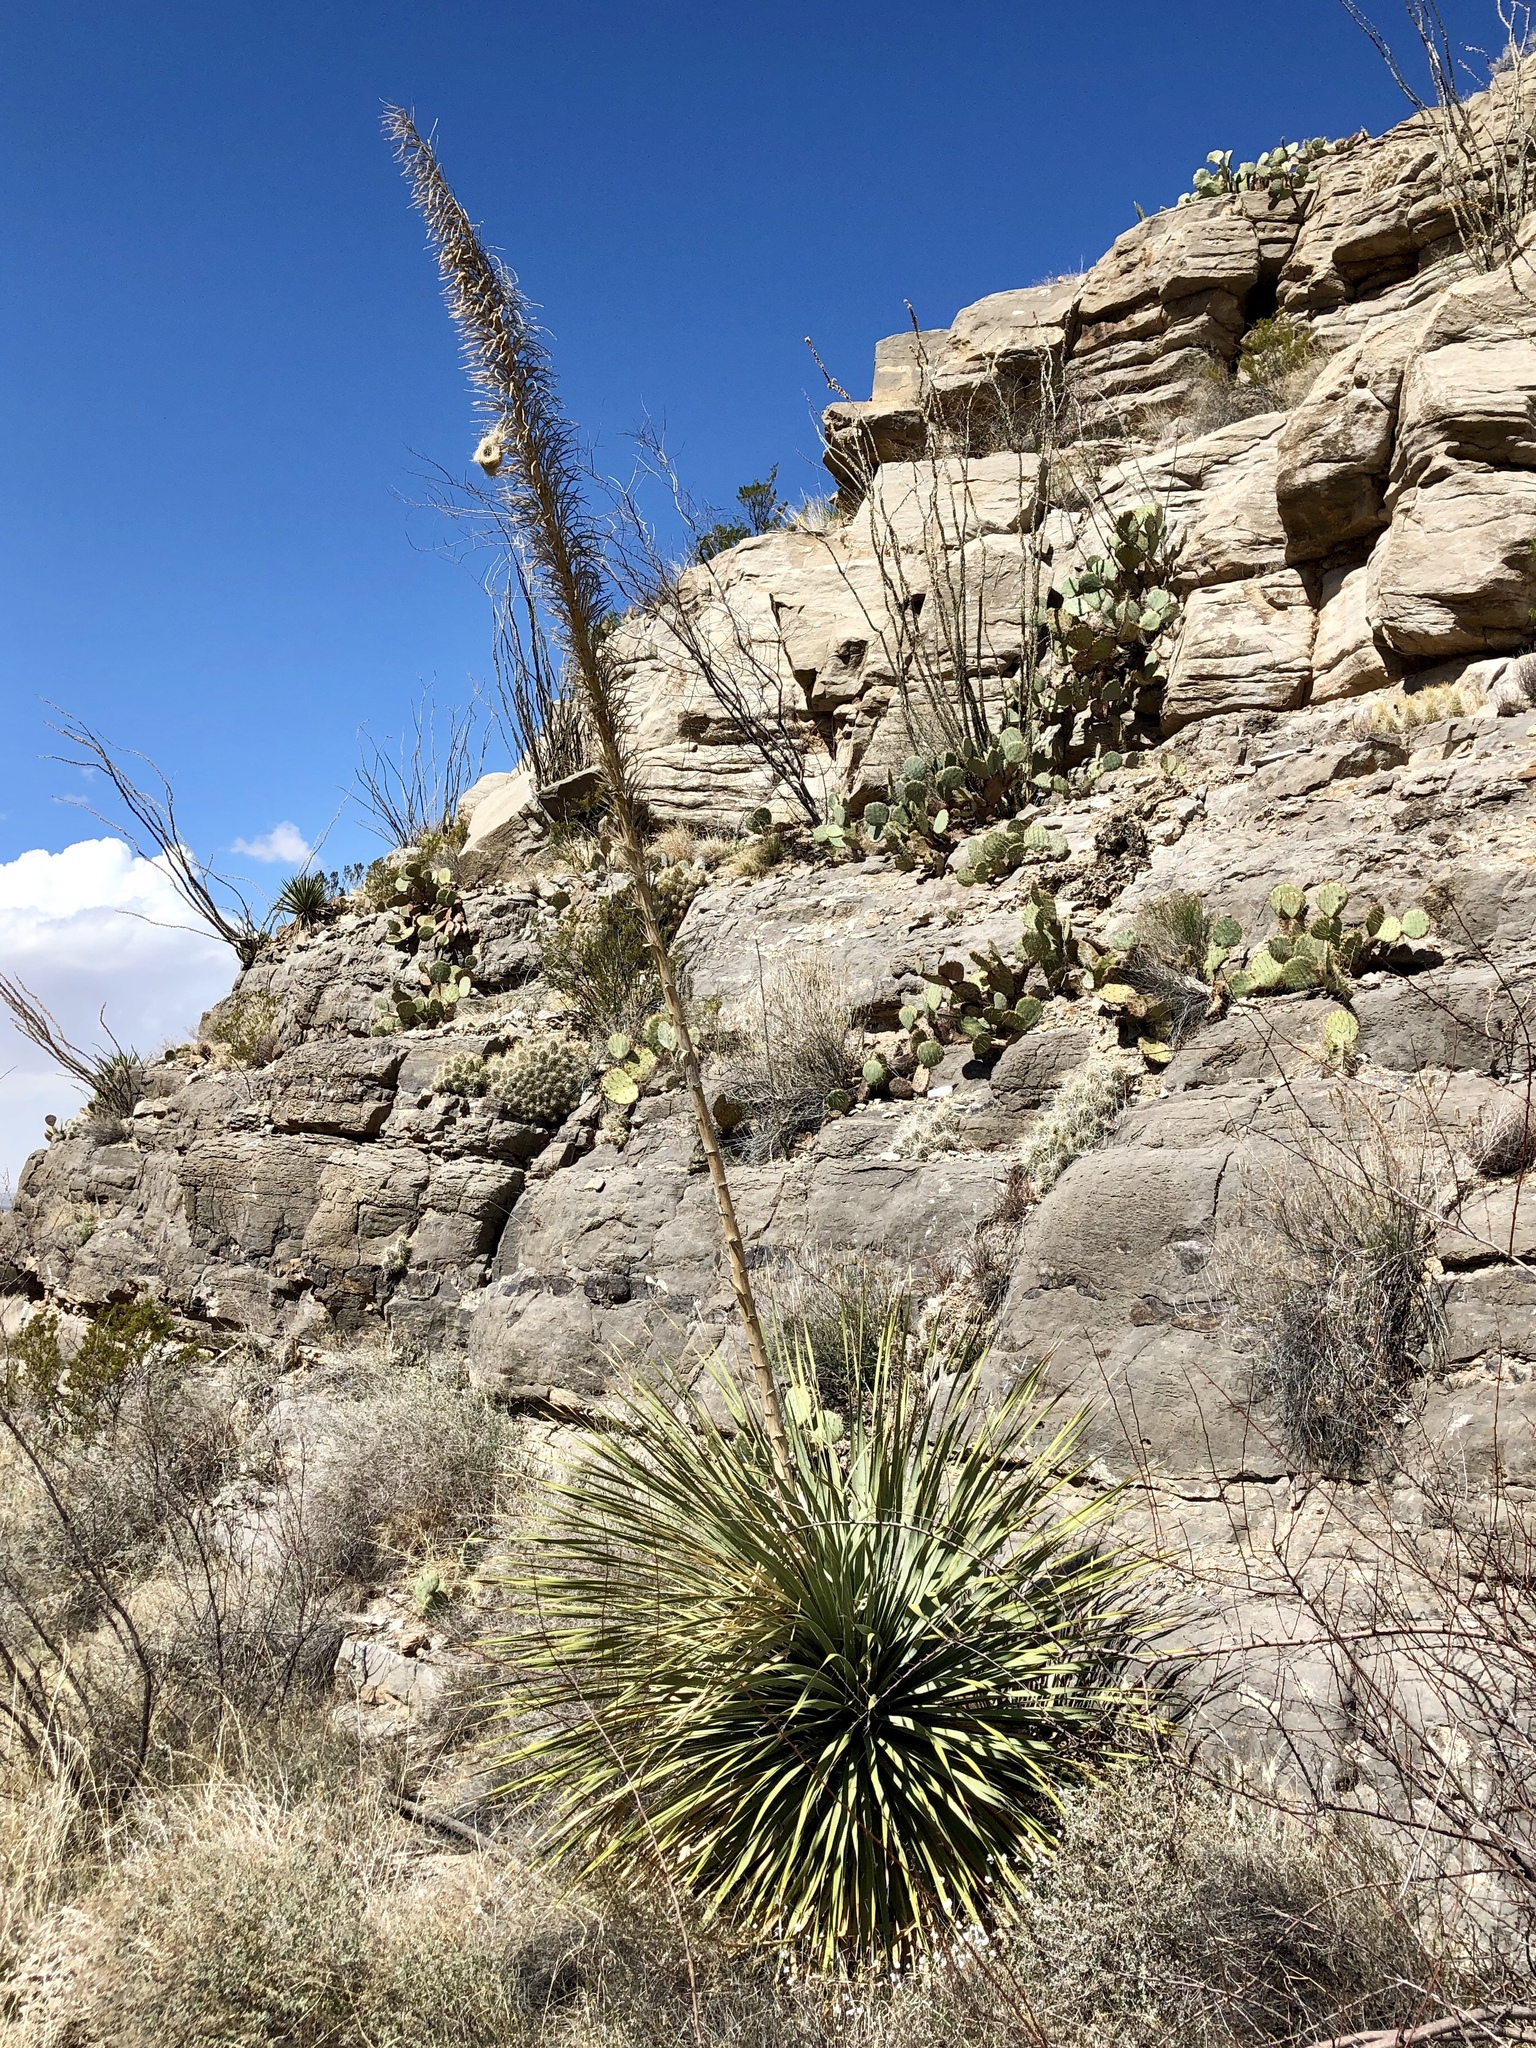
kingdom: Plantae
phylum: Tracheophyta
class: Liliopsida
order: Asparagales
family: Asparagaceae
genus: Dasylirion
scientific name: Dasylirion wheeleri
